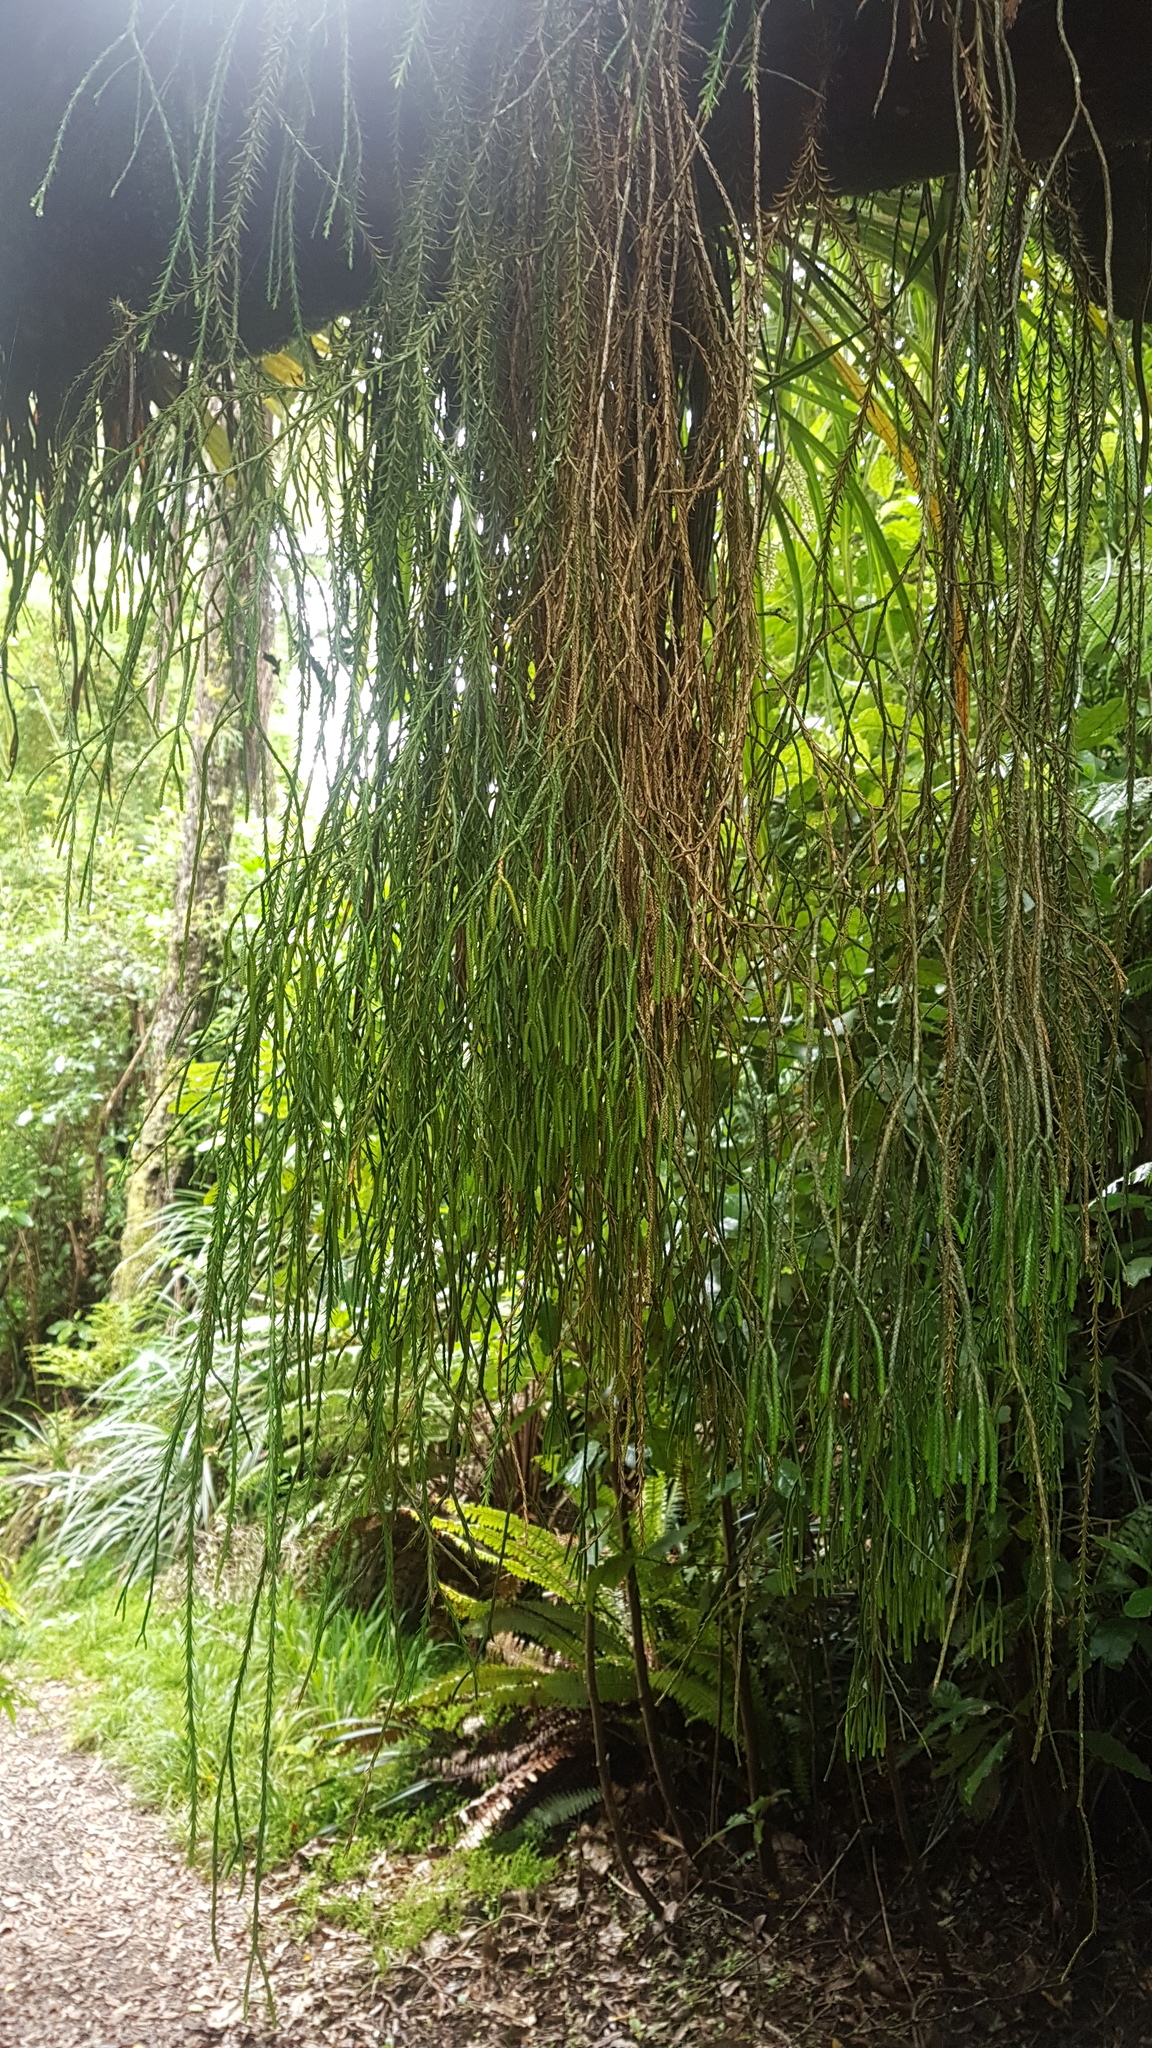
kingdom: Plantae
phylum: Tracheophyta
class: Lycopodiopsida
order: Lycopodiales
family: Lycopodiaceae
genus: Phlegmariurus
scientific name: Phlegmariurus varius
